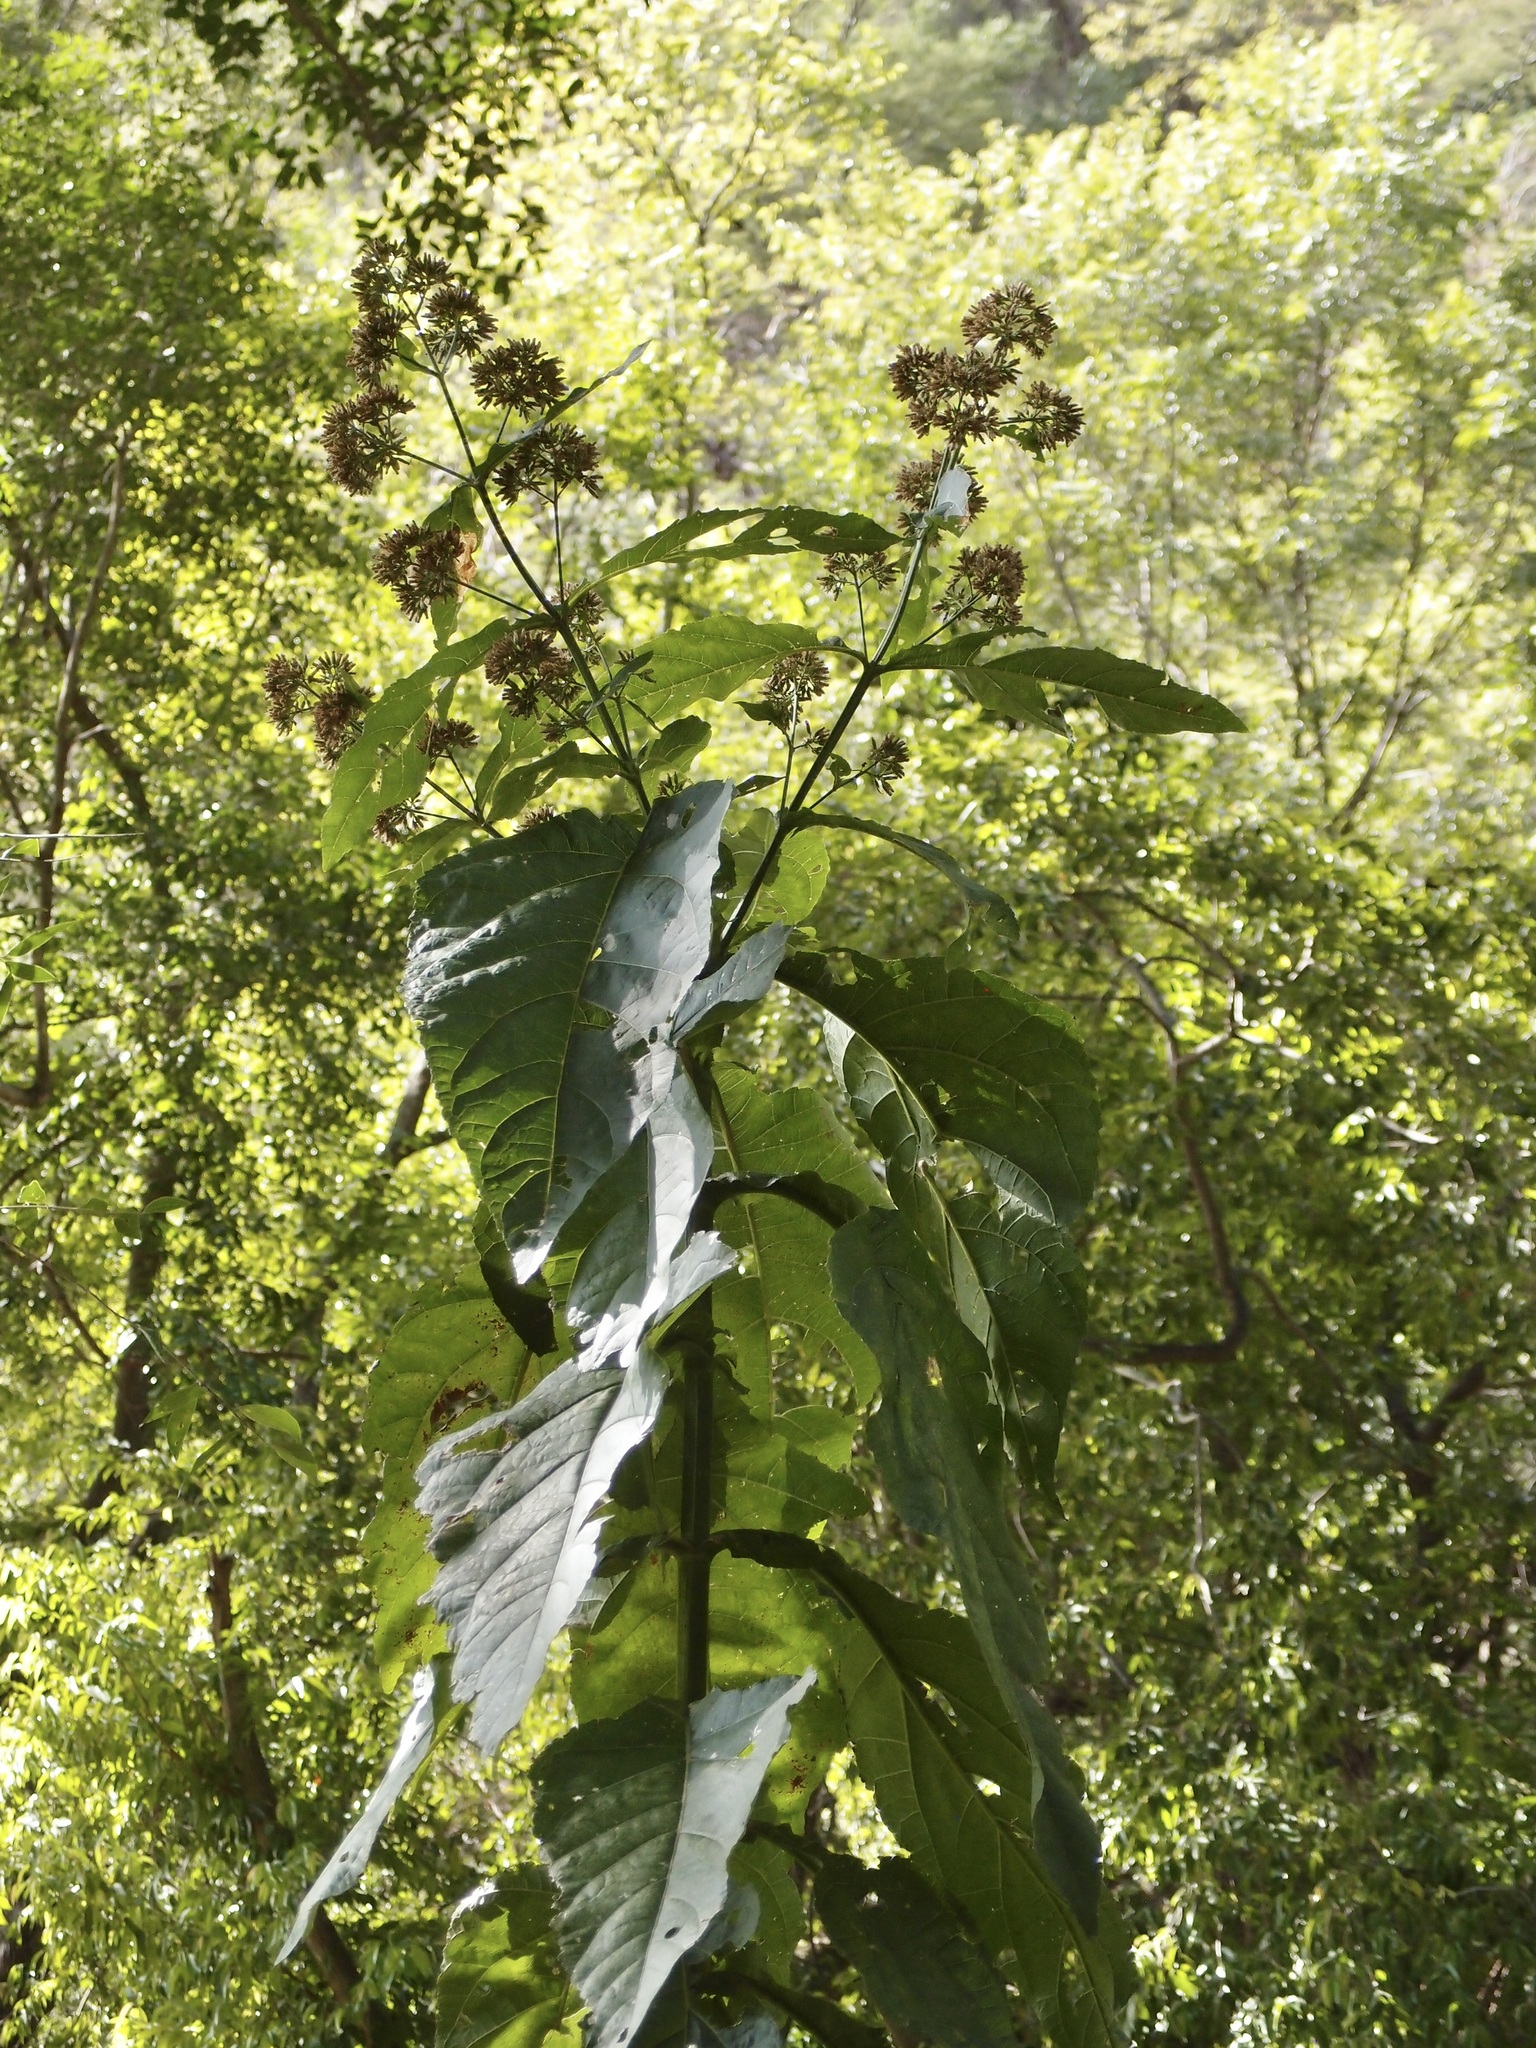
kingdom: Plantae
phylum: Tracheophyta
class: Magnoliopsida
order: Asterales
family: Asteraceae
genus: Critonia
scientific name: Critonia quadrangularis
